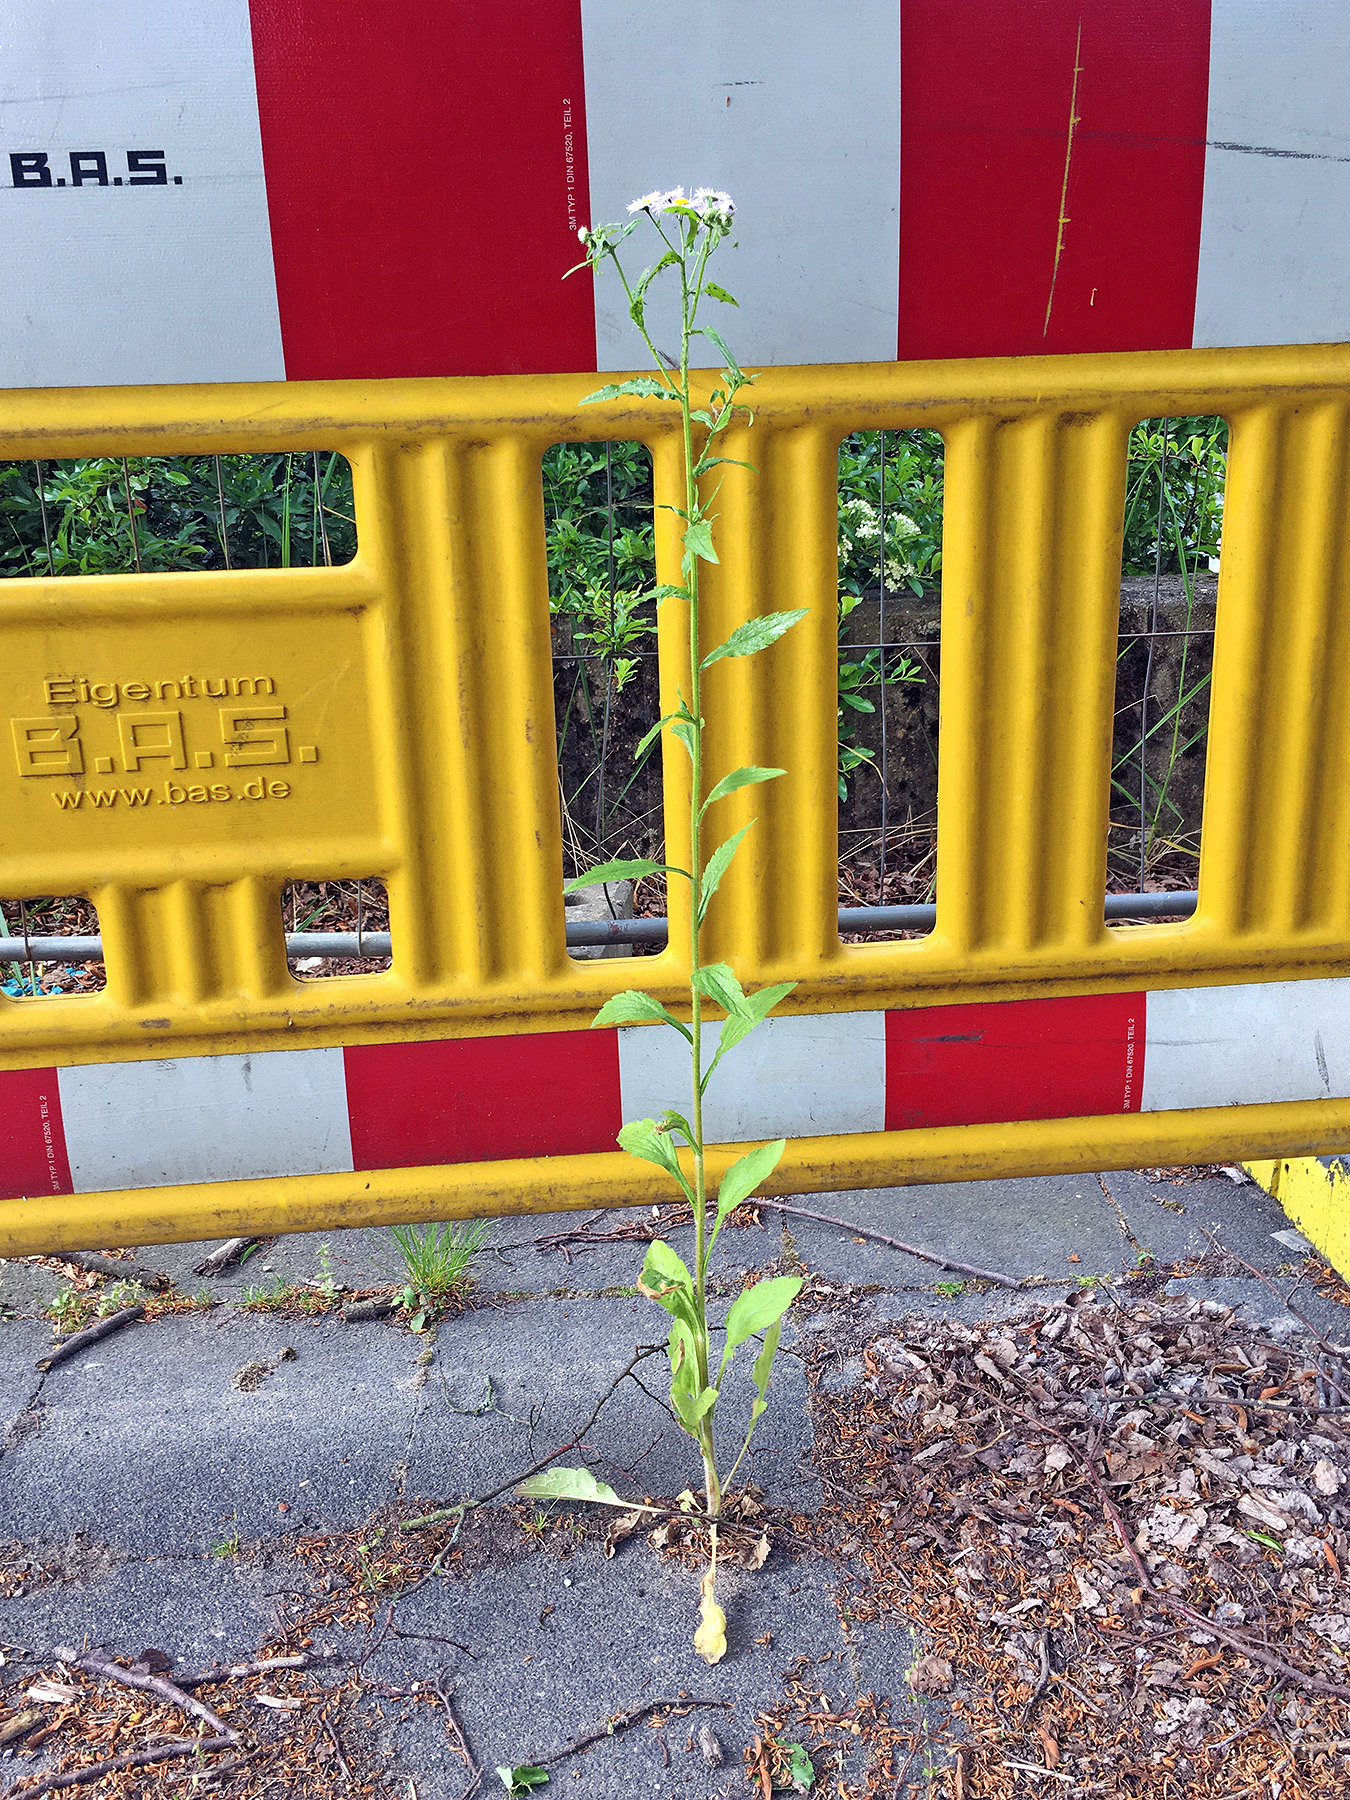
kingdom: Plantae
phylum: Tracheophyta
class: Magnoliopsida
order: Asterales
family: Asteraceae
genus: Erigeron
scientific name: Erigeron annuus
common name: Tall fleabane
